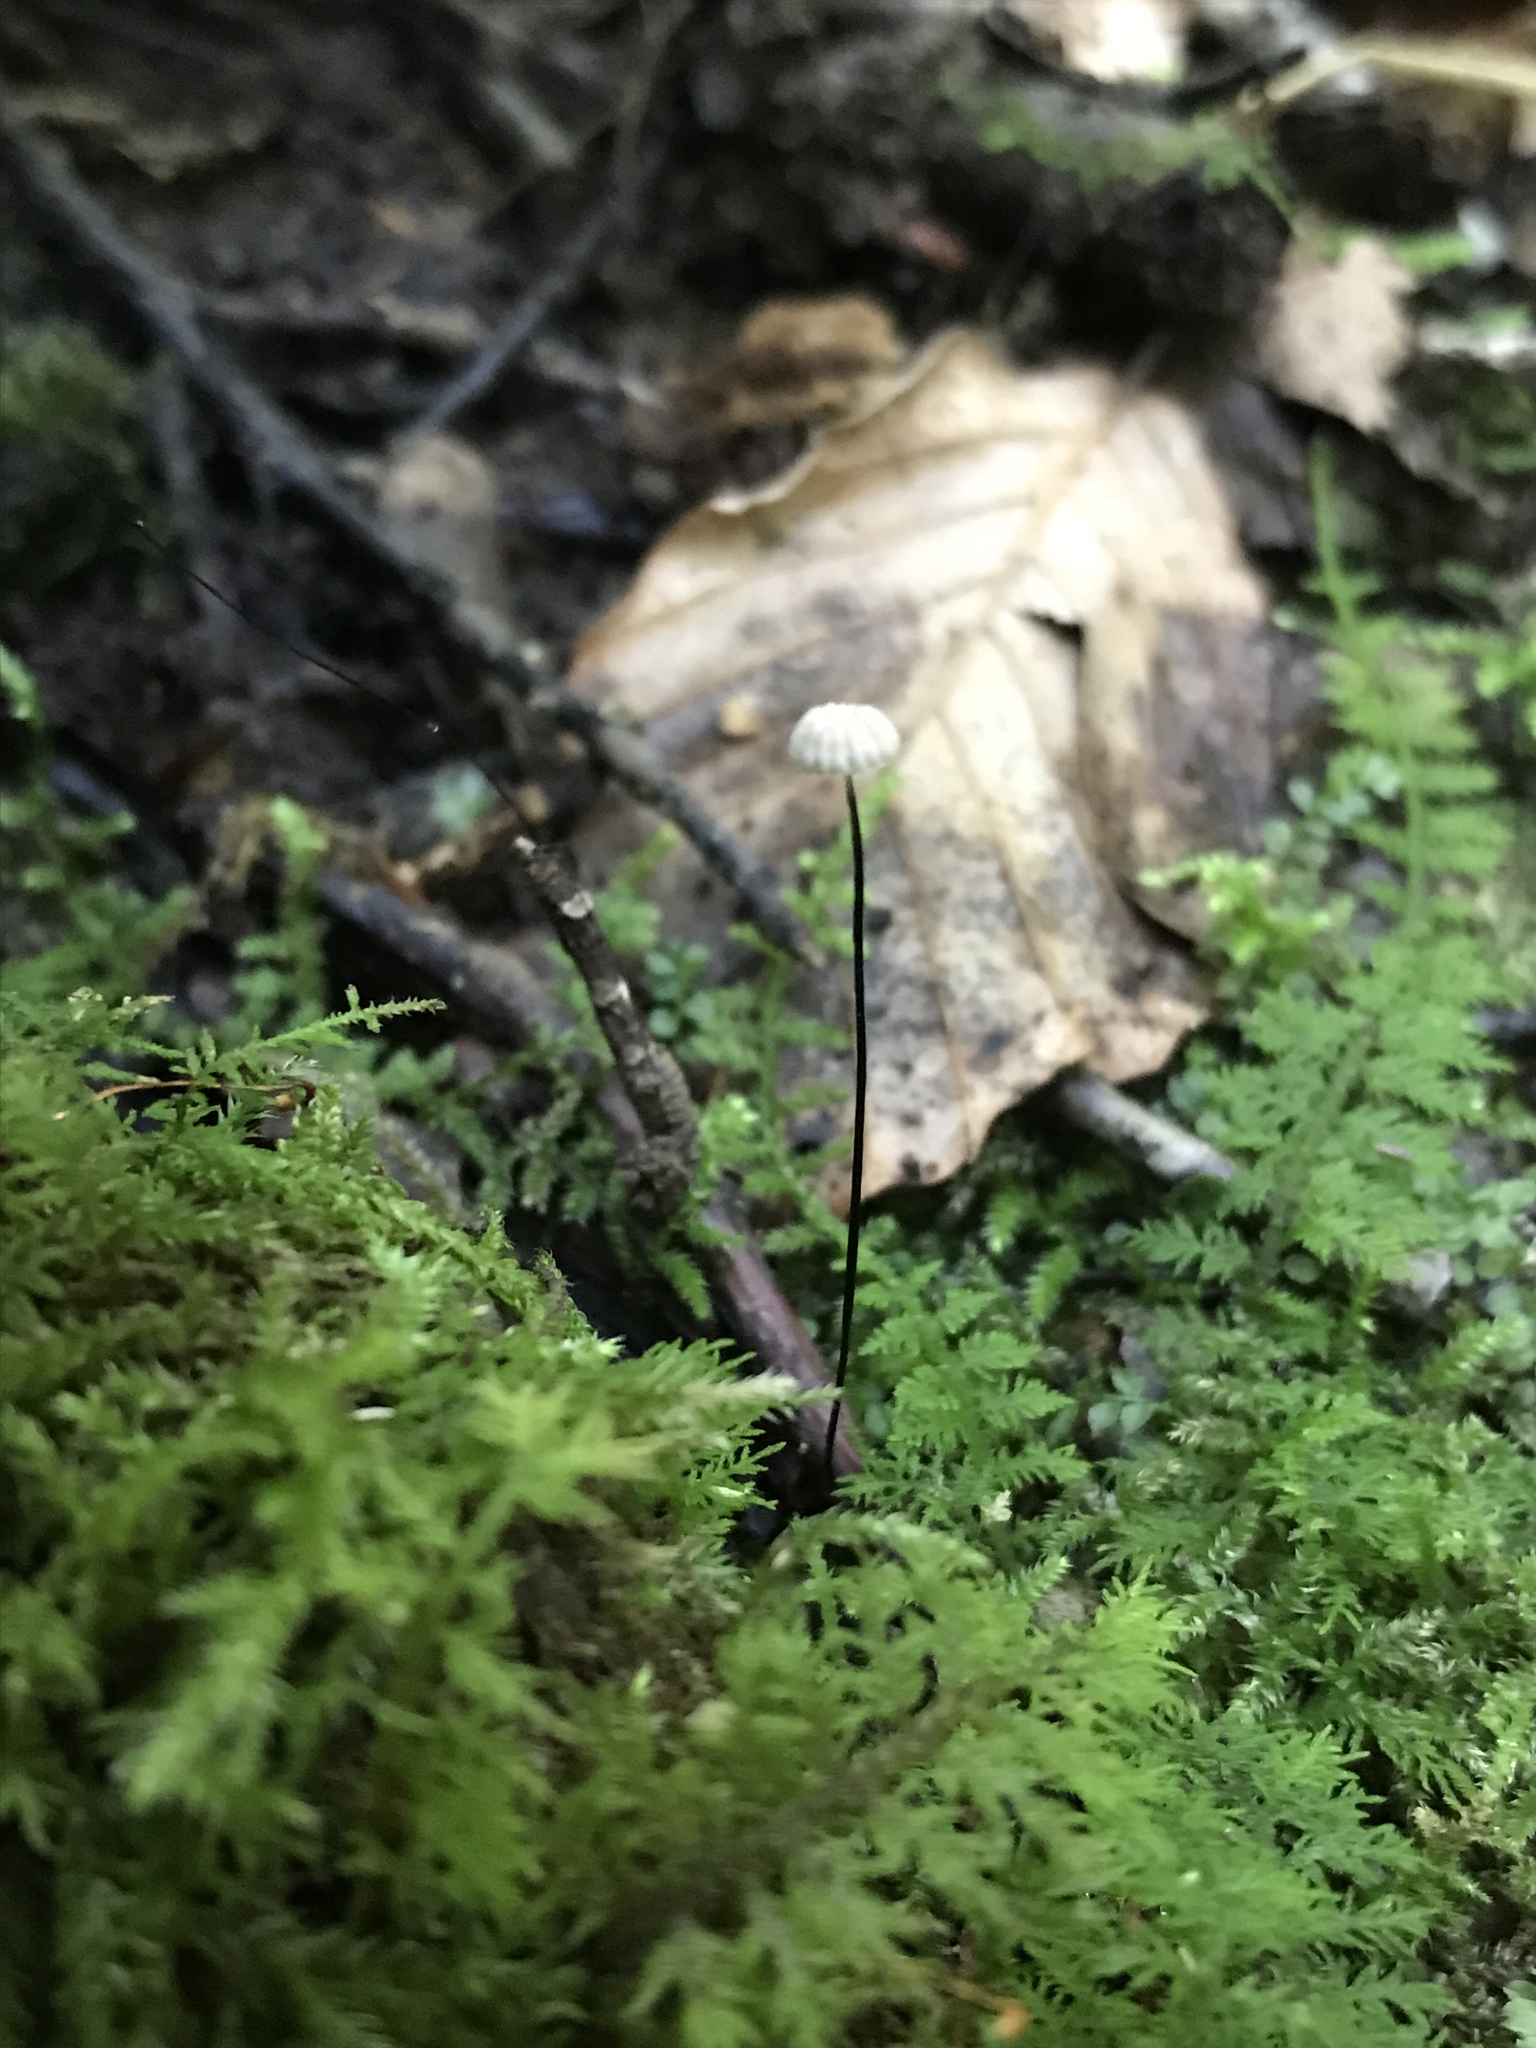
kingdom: Fungi
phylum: Basidiomycota
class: Agaricomycetes
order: Agaricales
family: Marasmiaceae
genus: Marasmius
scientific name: Marasmius capillaris
